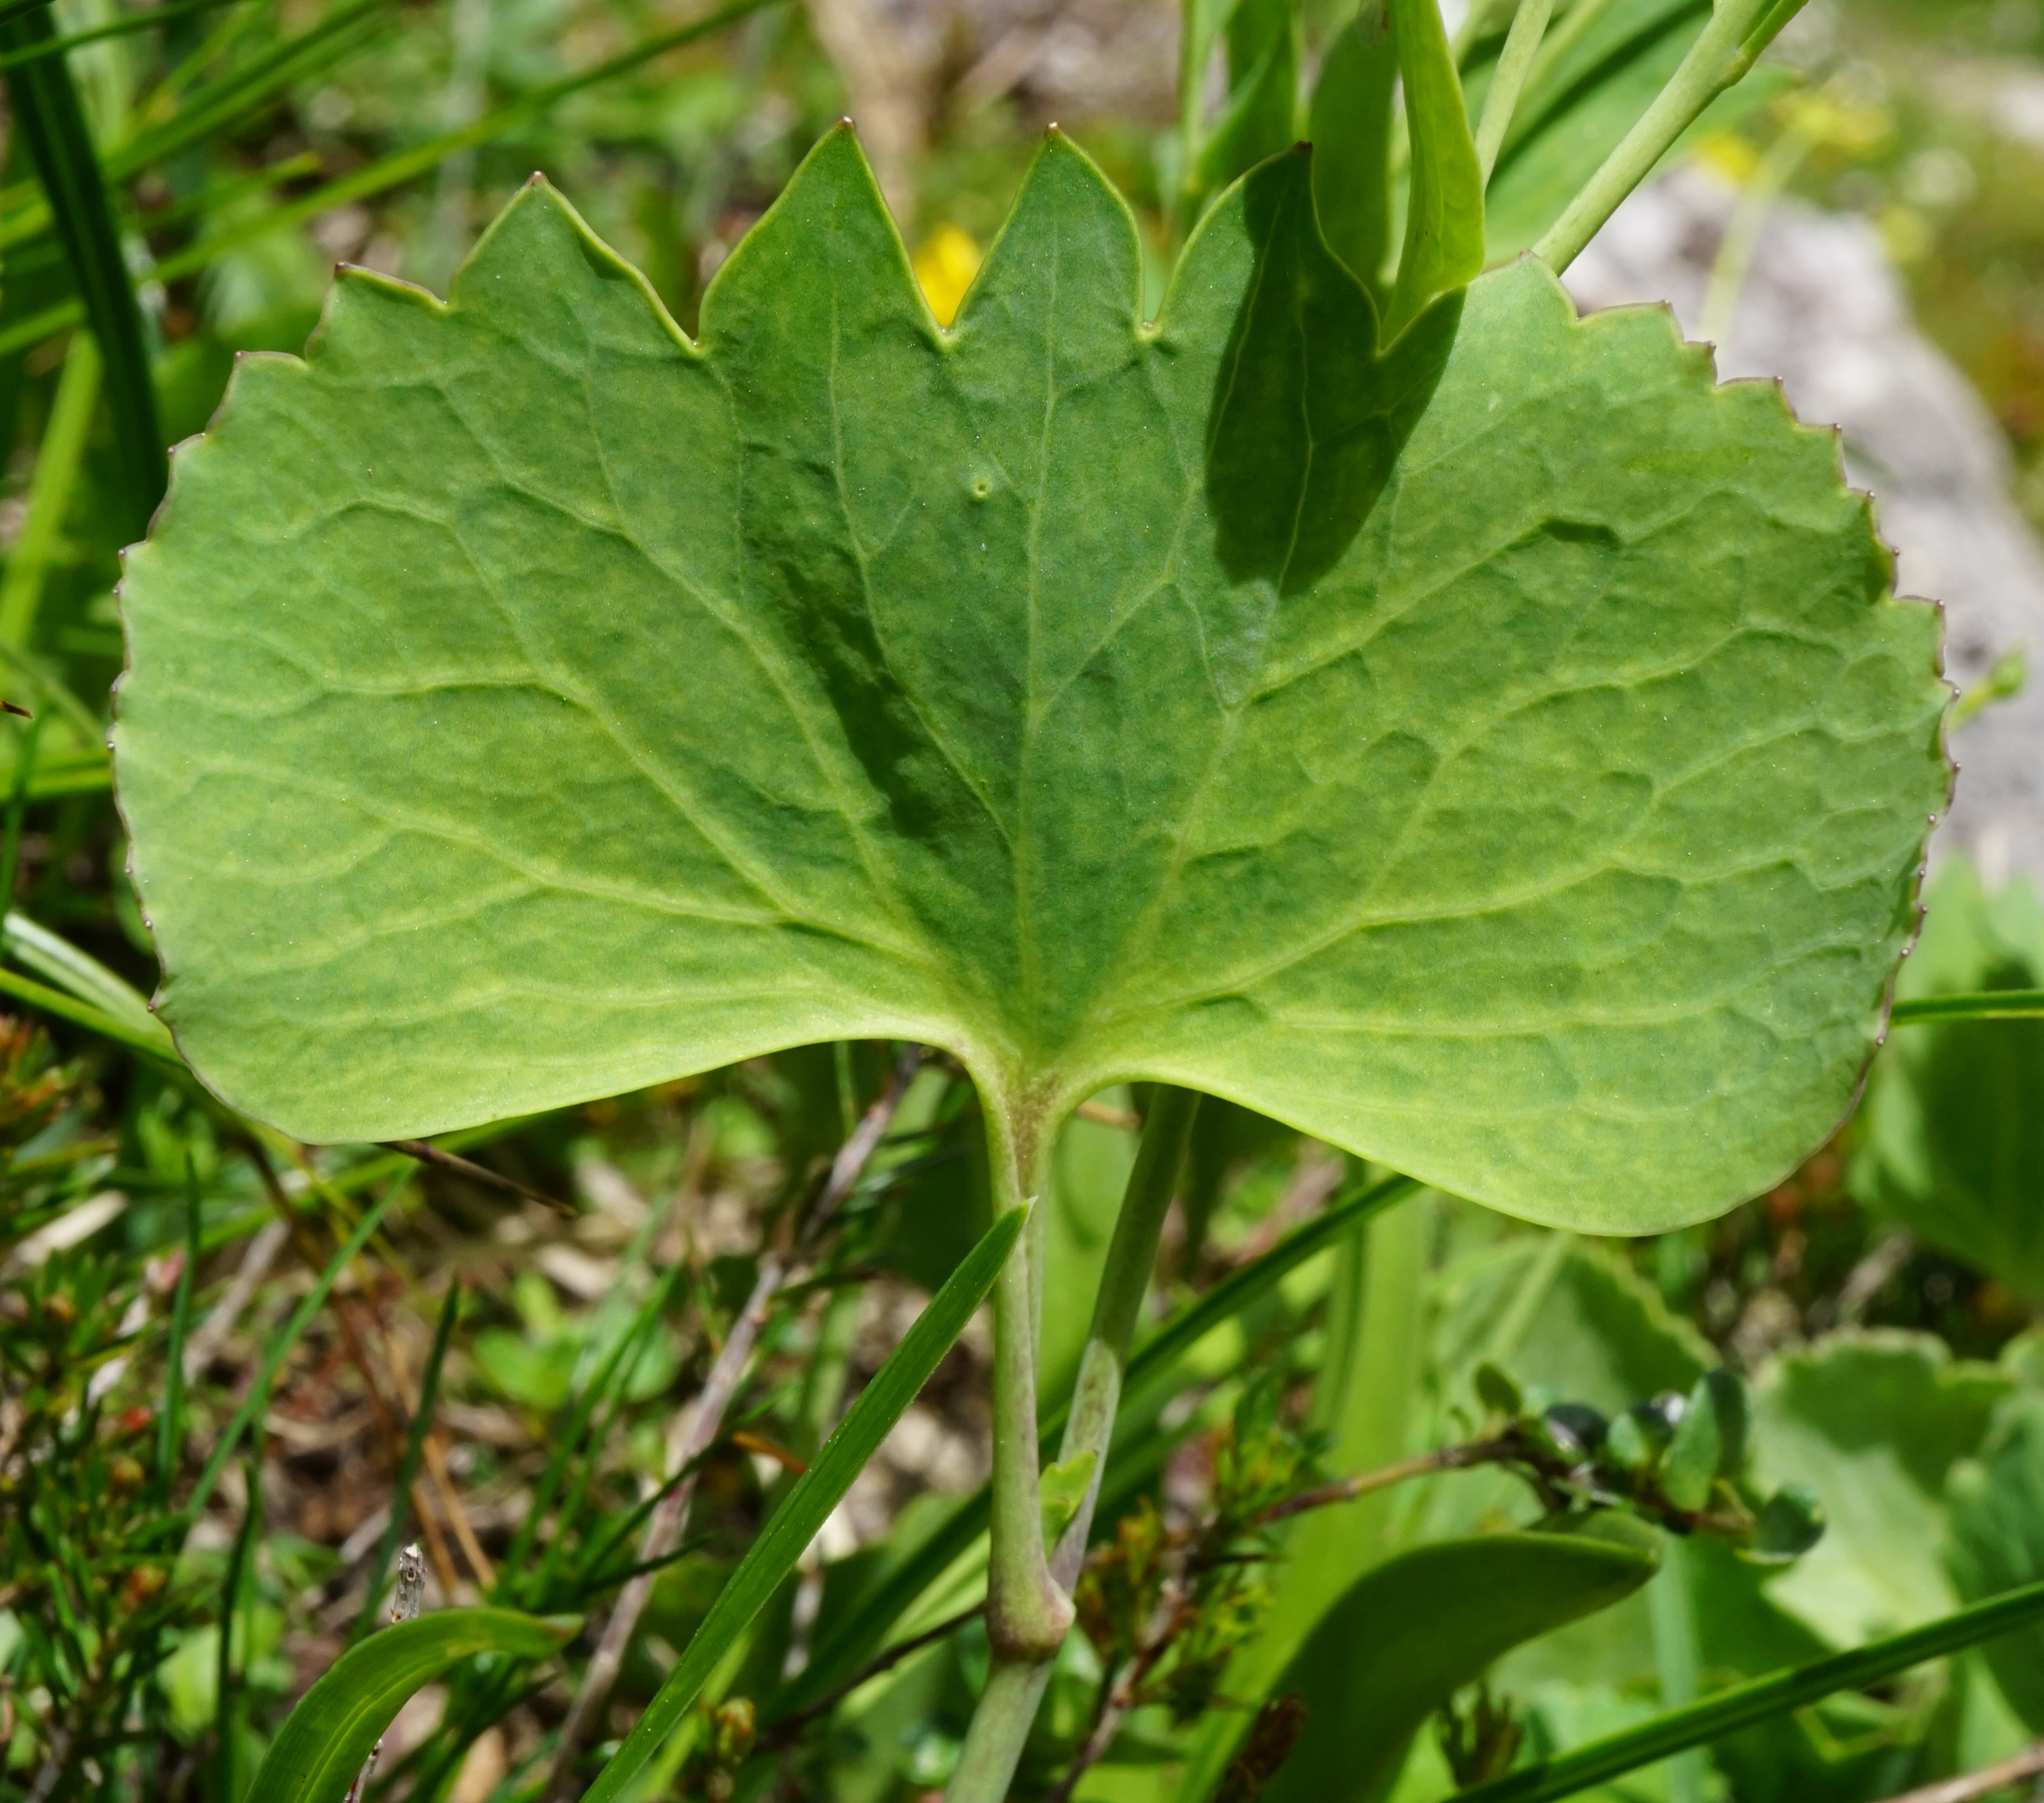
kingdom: Plantae
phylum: Tracheophyta
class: Magnoliopsida
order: Ranunculales
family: Ranunculaceae
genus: Ranunculus
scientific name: Ranunculus hybridus
